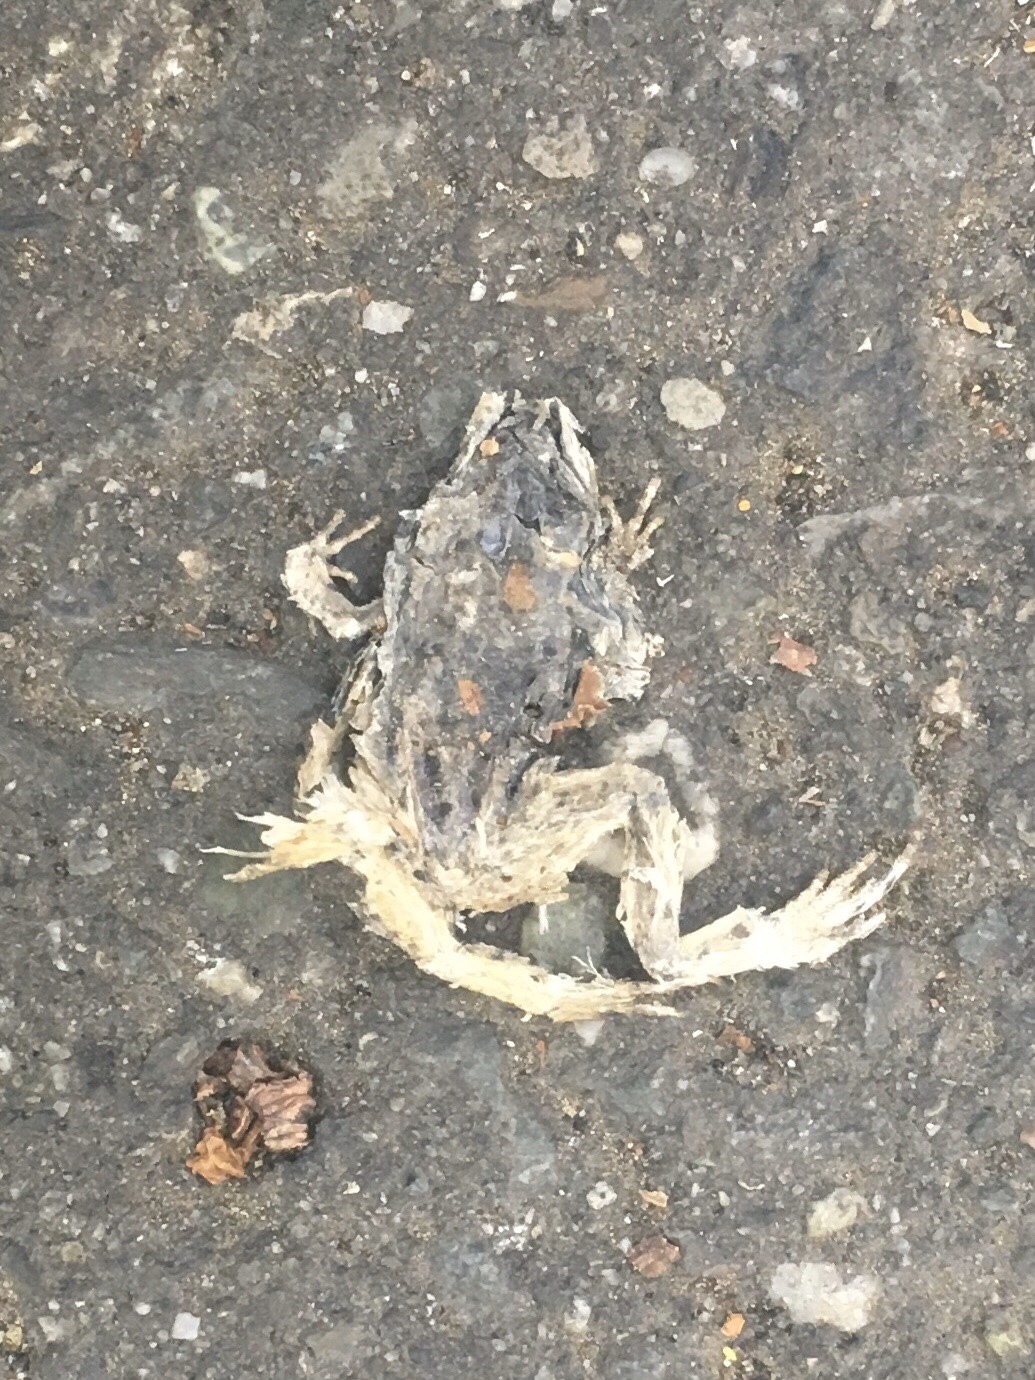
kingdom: Animalia
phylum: Chordata
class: Amphibia
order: Anura
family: Ranidae
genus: Lithobates
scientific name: Lithobates sylvaticus
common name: Wood frog
